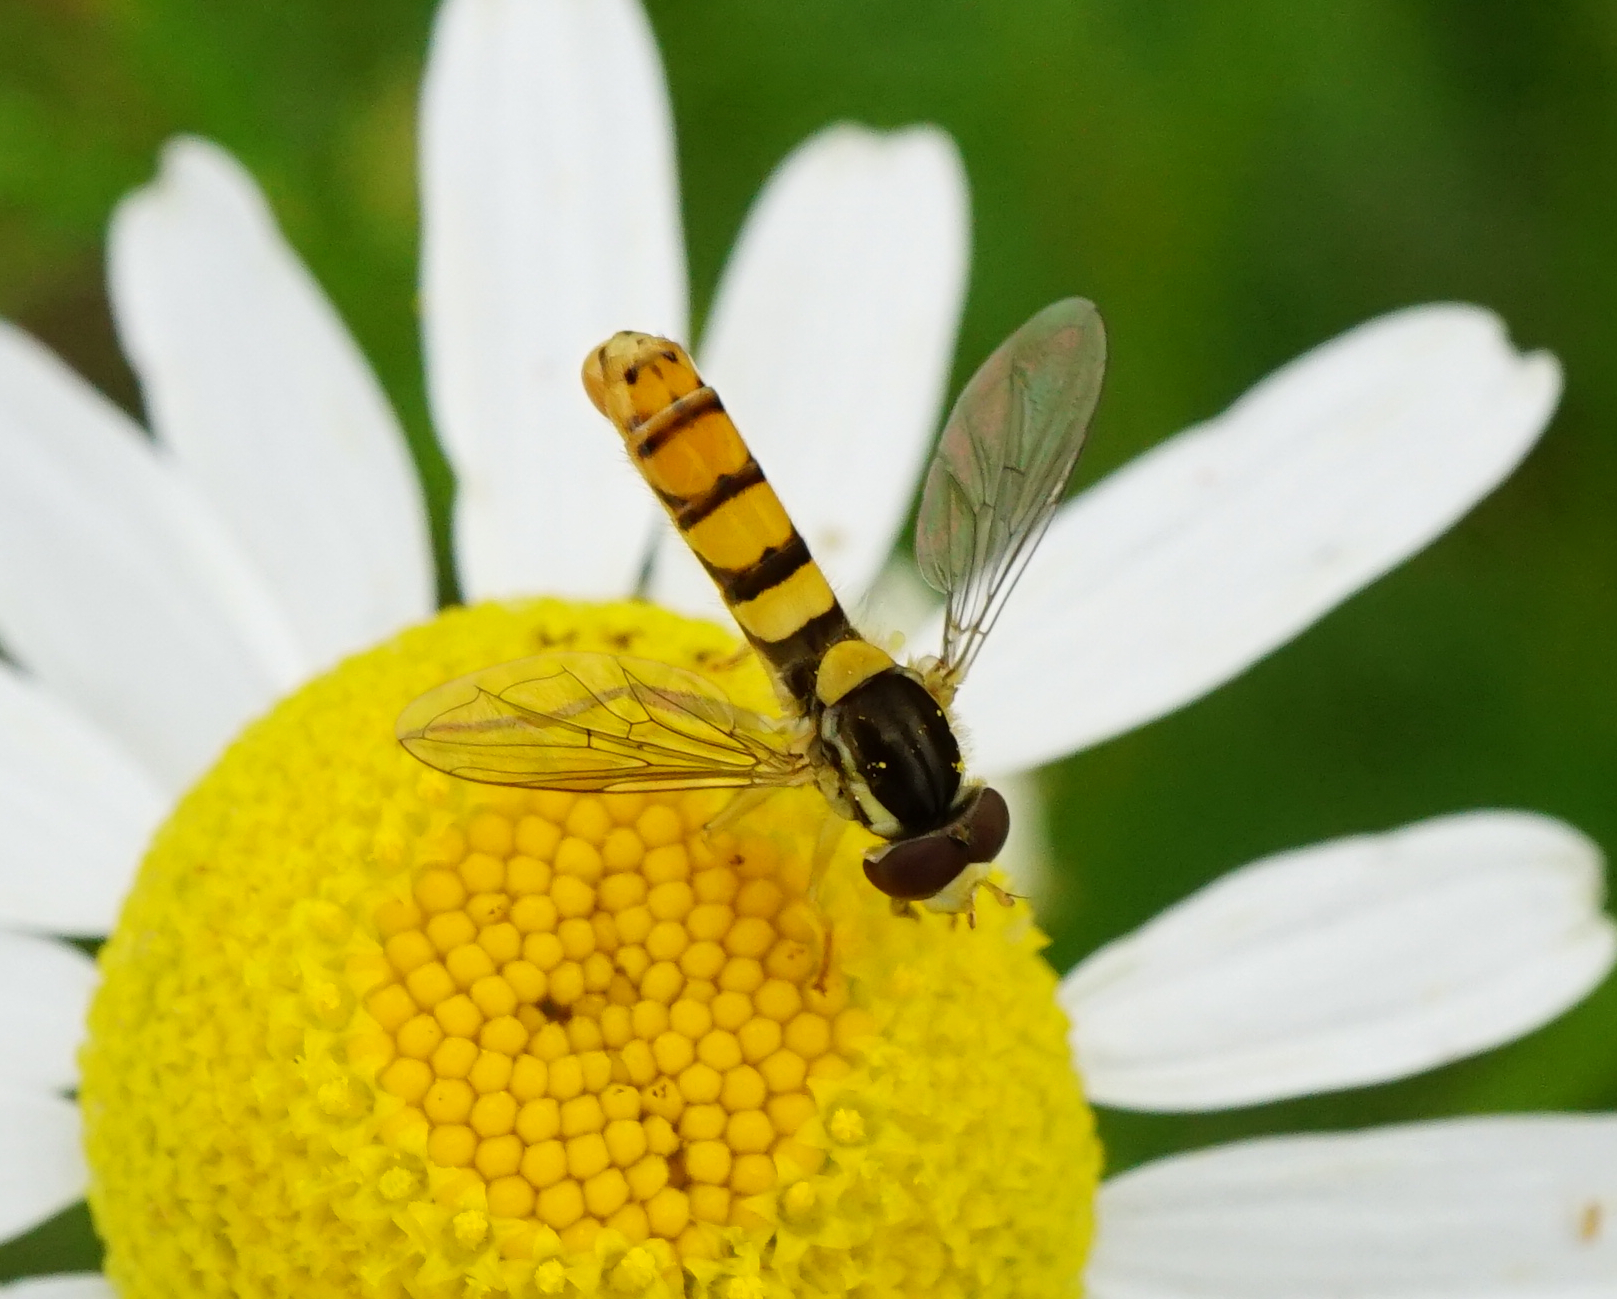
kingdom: Animalia
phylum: Arthropoda
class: Insecta
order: Diptera
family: Syrphidae
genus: Sphaerophoria
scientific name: Sphaerophoria
